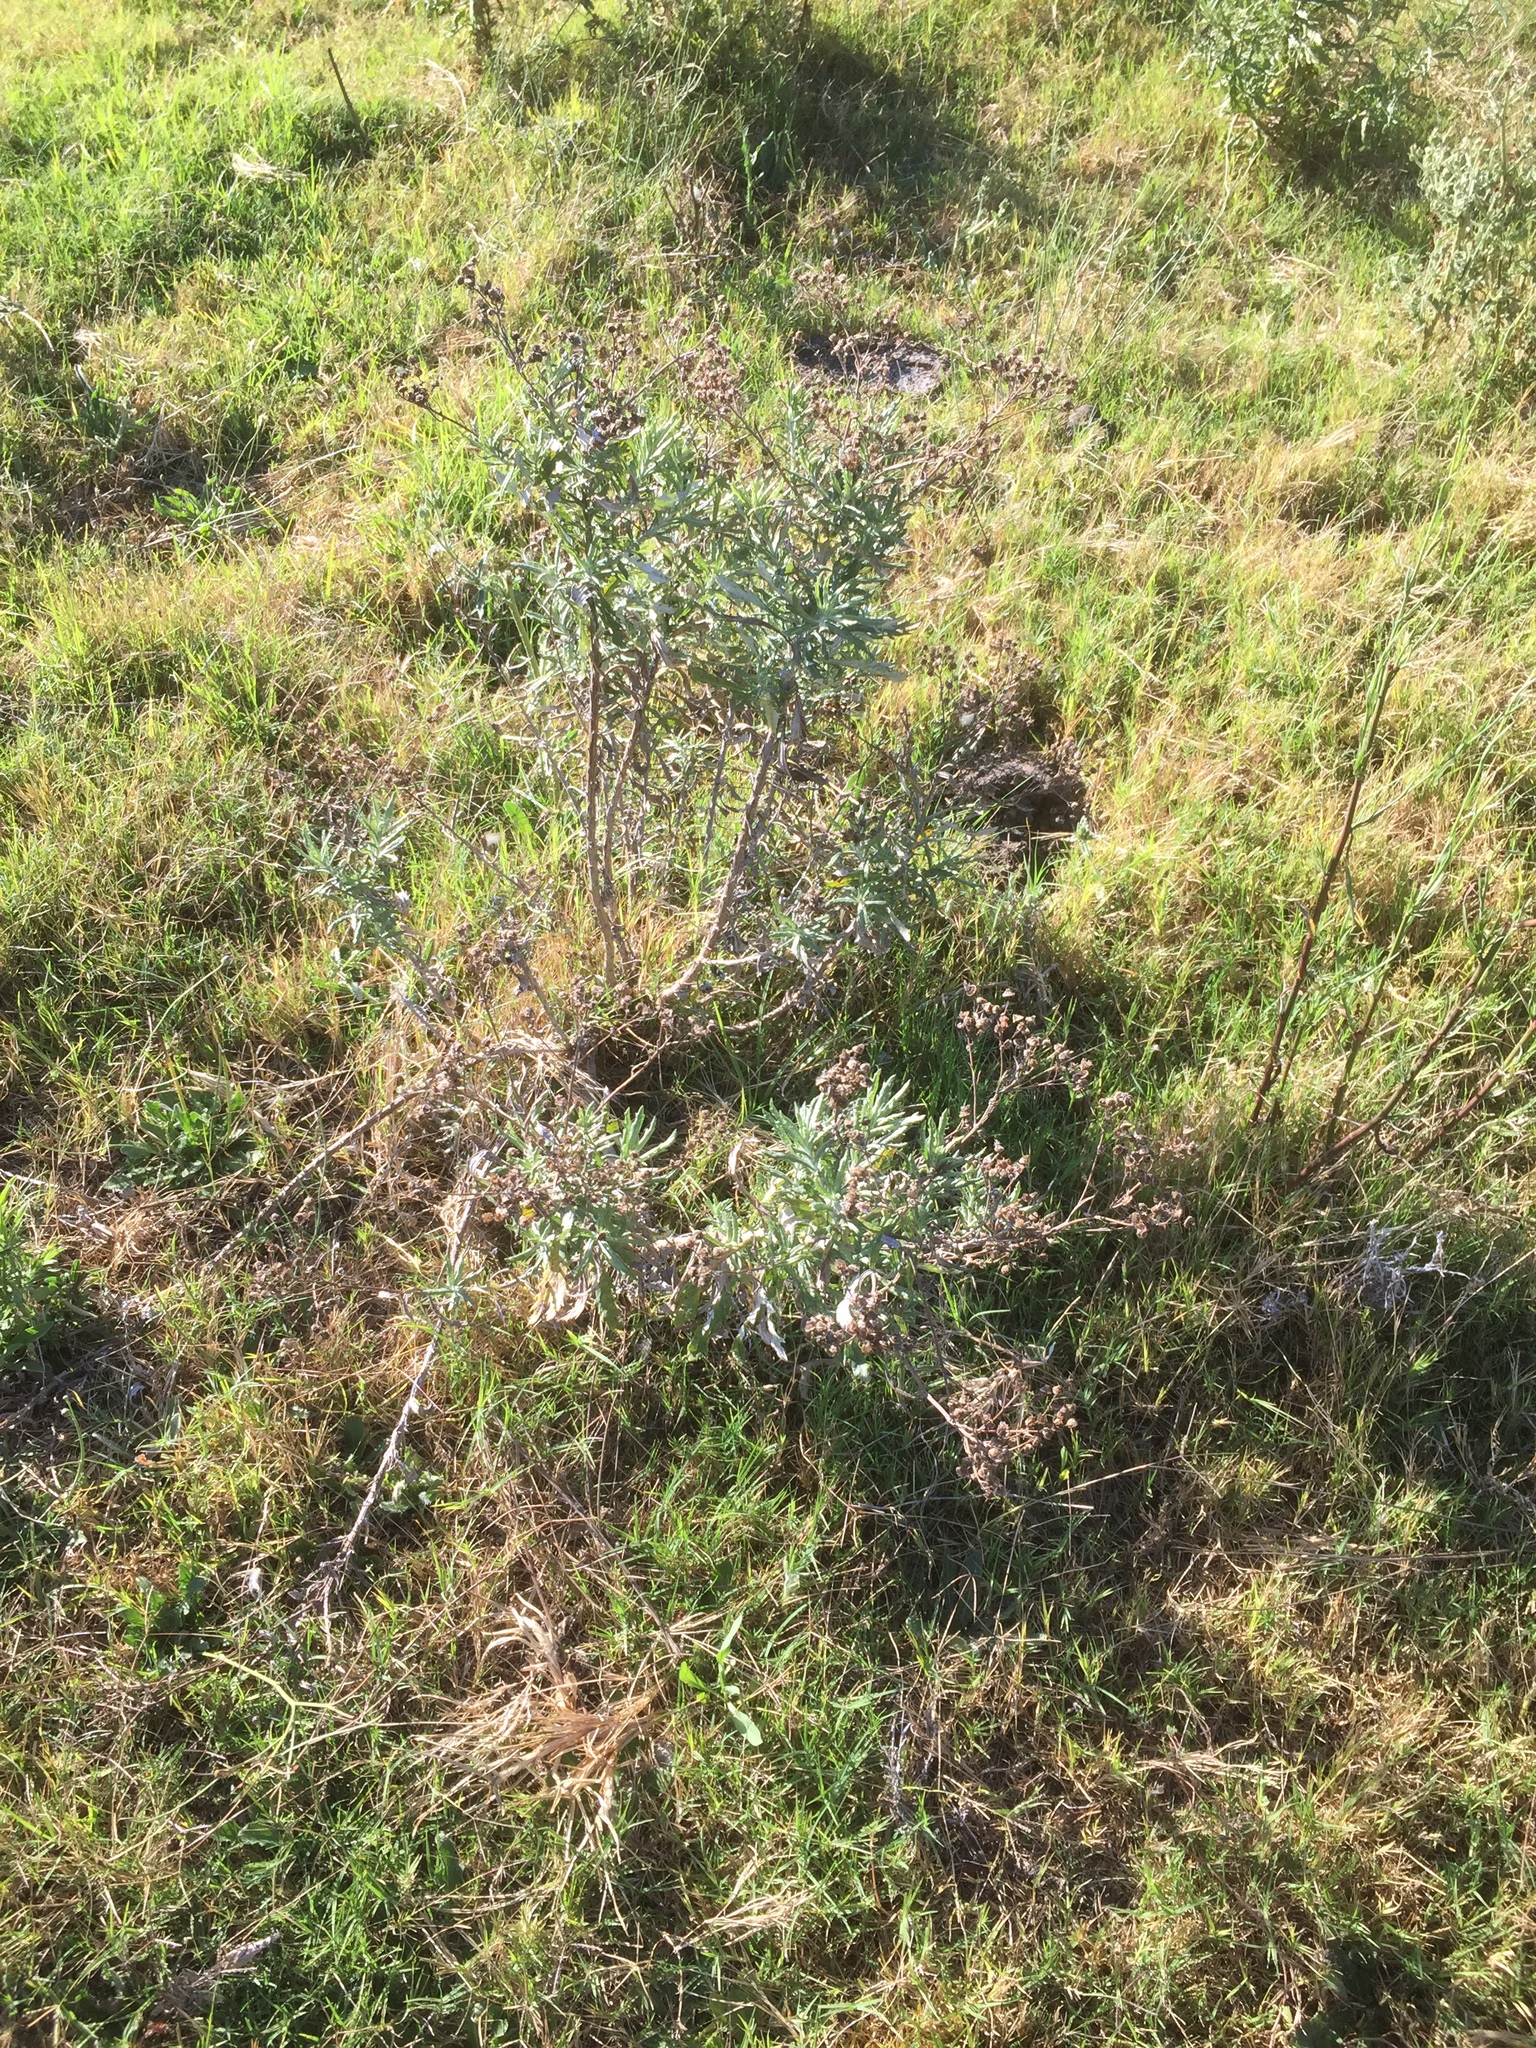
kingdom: Plantae
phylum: Tracheophyta
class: Magnoliopsida
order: Asterales
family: Asteraceae
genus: Senecio
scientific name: Senecio pterophorus
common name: Shoddy ragwort
